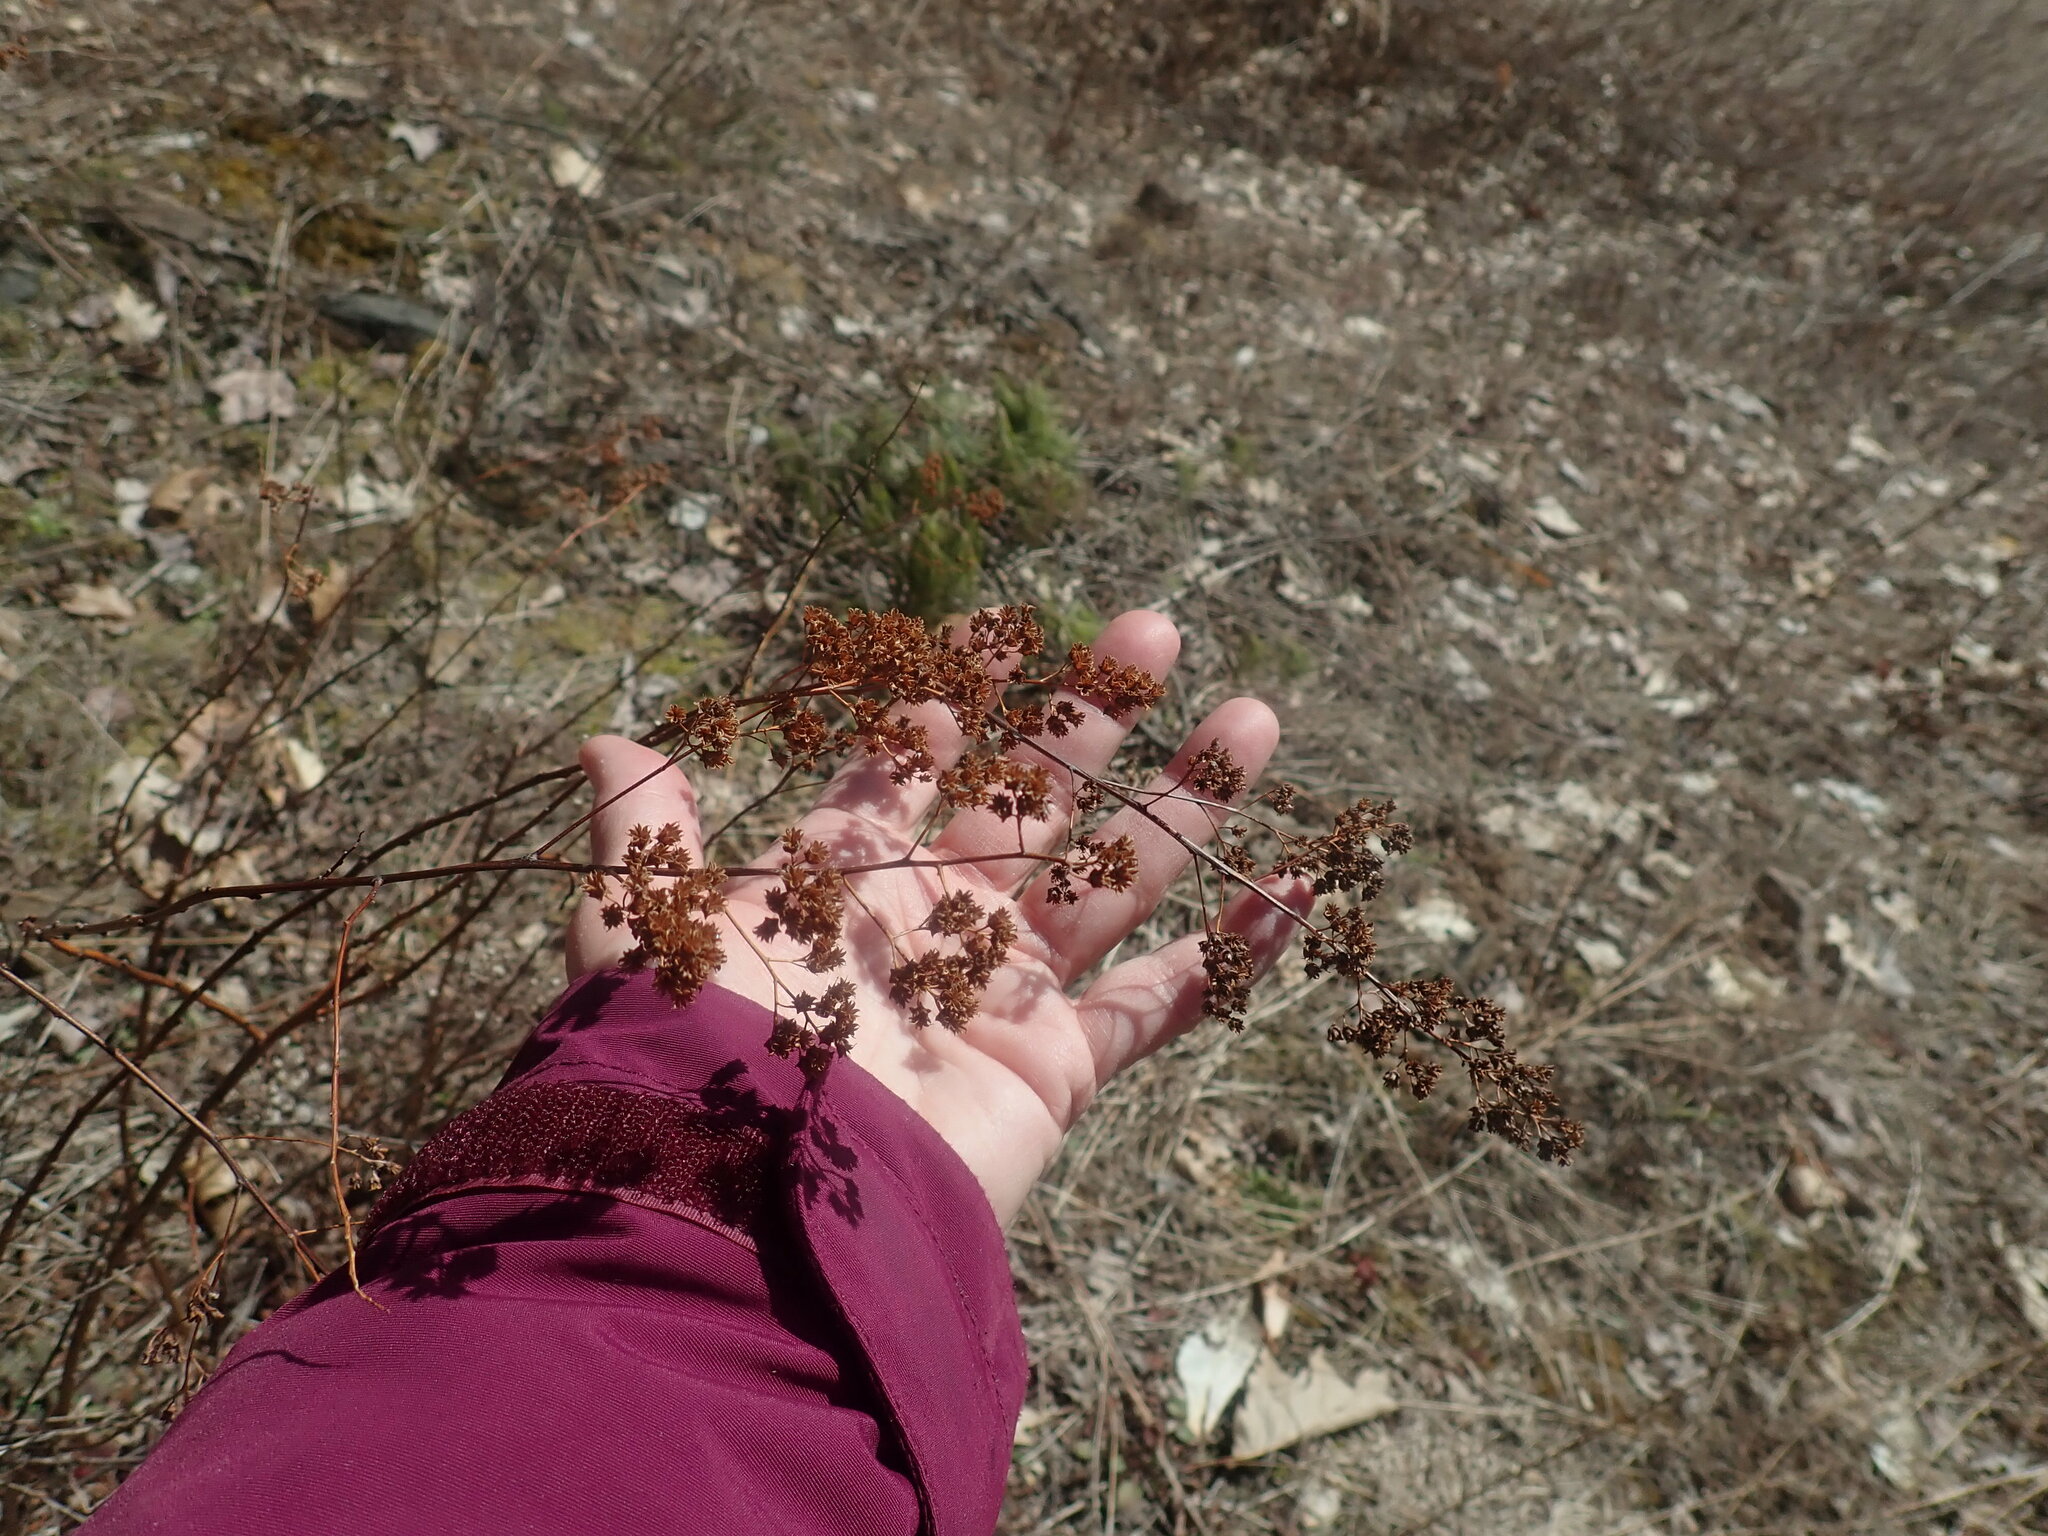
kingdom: Plantae
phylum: Tracheophyta
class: Magnoliopsida
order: Rosales
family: Rosaceae
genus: Spiraea
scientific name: Spiraea alba
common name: Pale bridewort
